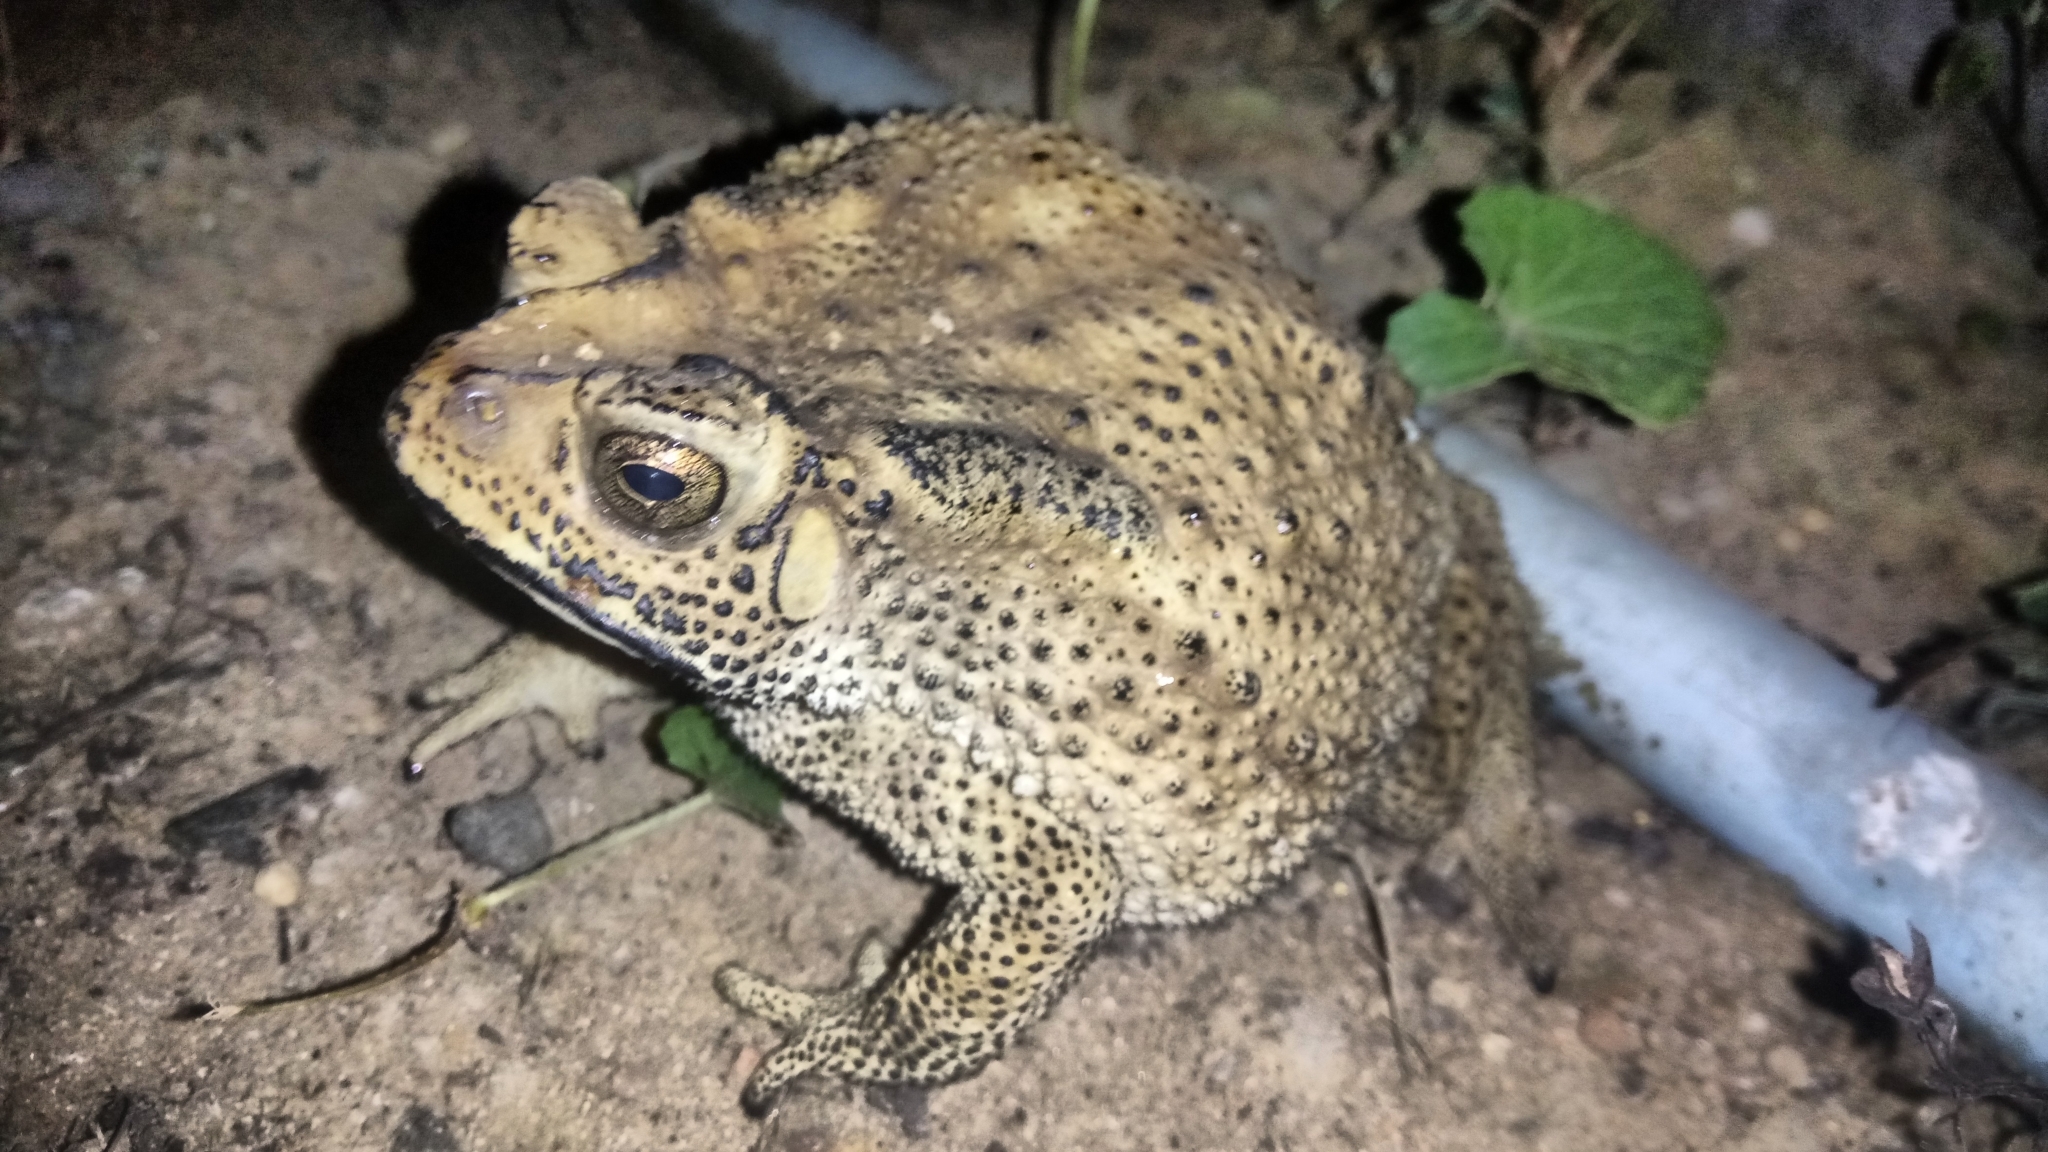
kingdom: Animalia
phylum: Chordata
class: Amphibia
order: Anura
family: Bufonidae
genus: Duttaphrynus
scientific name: Duttaphrynus melanostictus
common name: Common sunda toad
